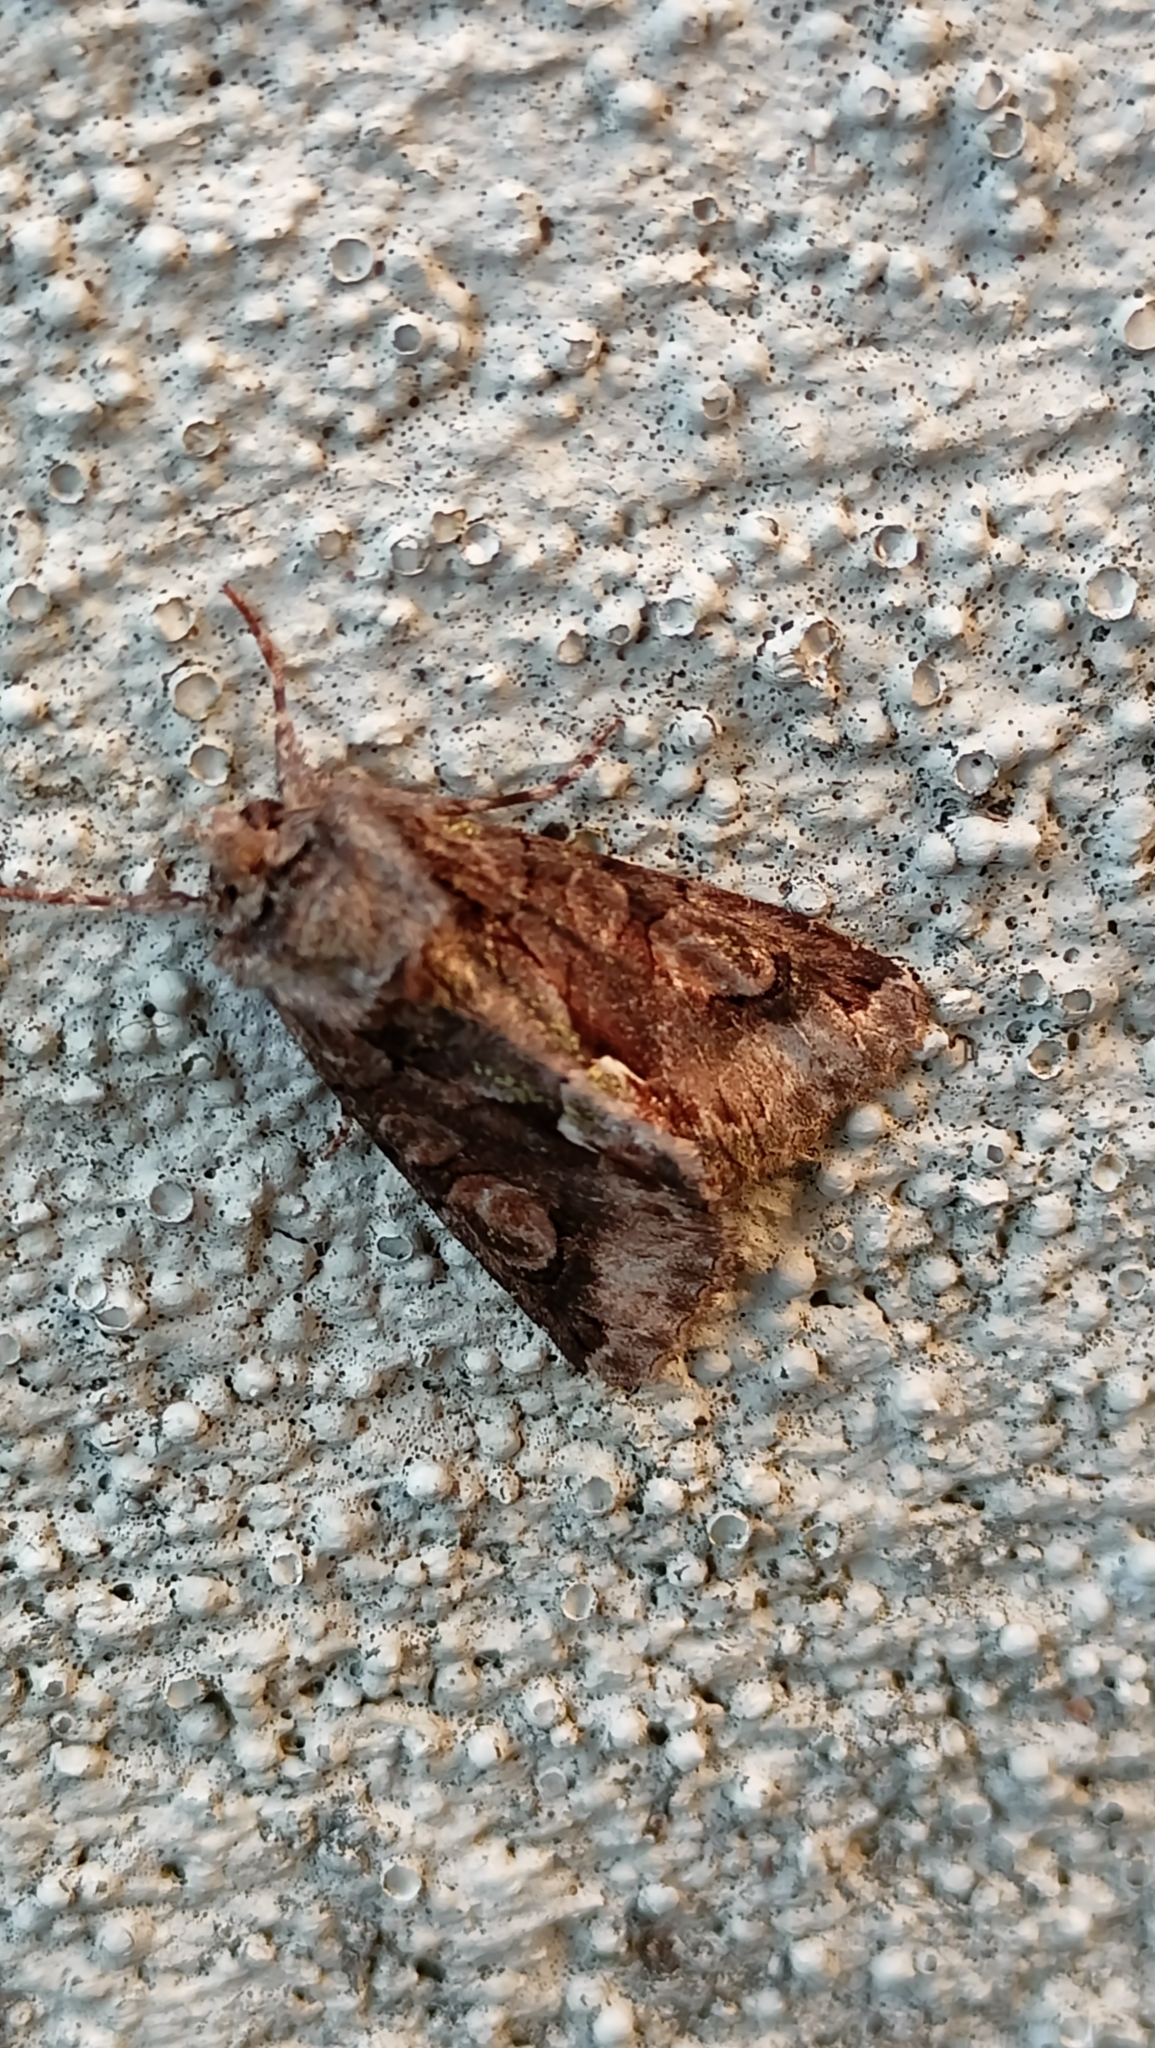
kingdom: Animalia
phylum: Arthropoda
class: Insecta
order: Lepidoptera
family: Noctuidae
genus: Allophyes
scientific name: Allophyes oxyacanthae
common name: Green-brindled crescent
